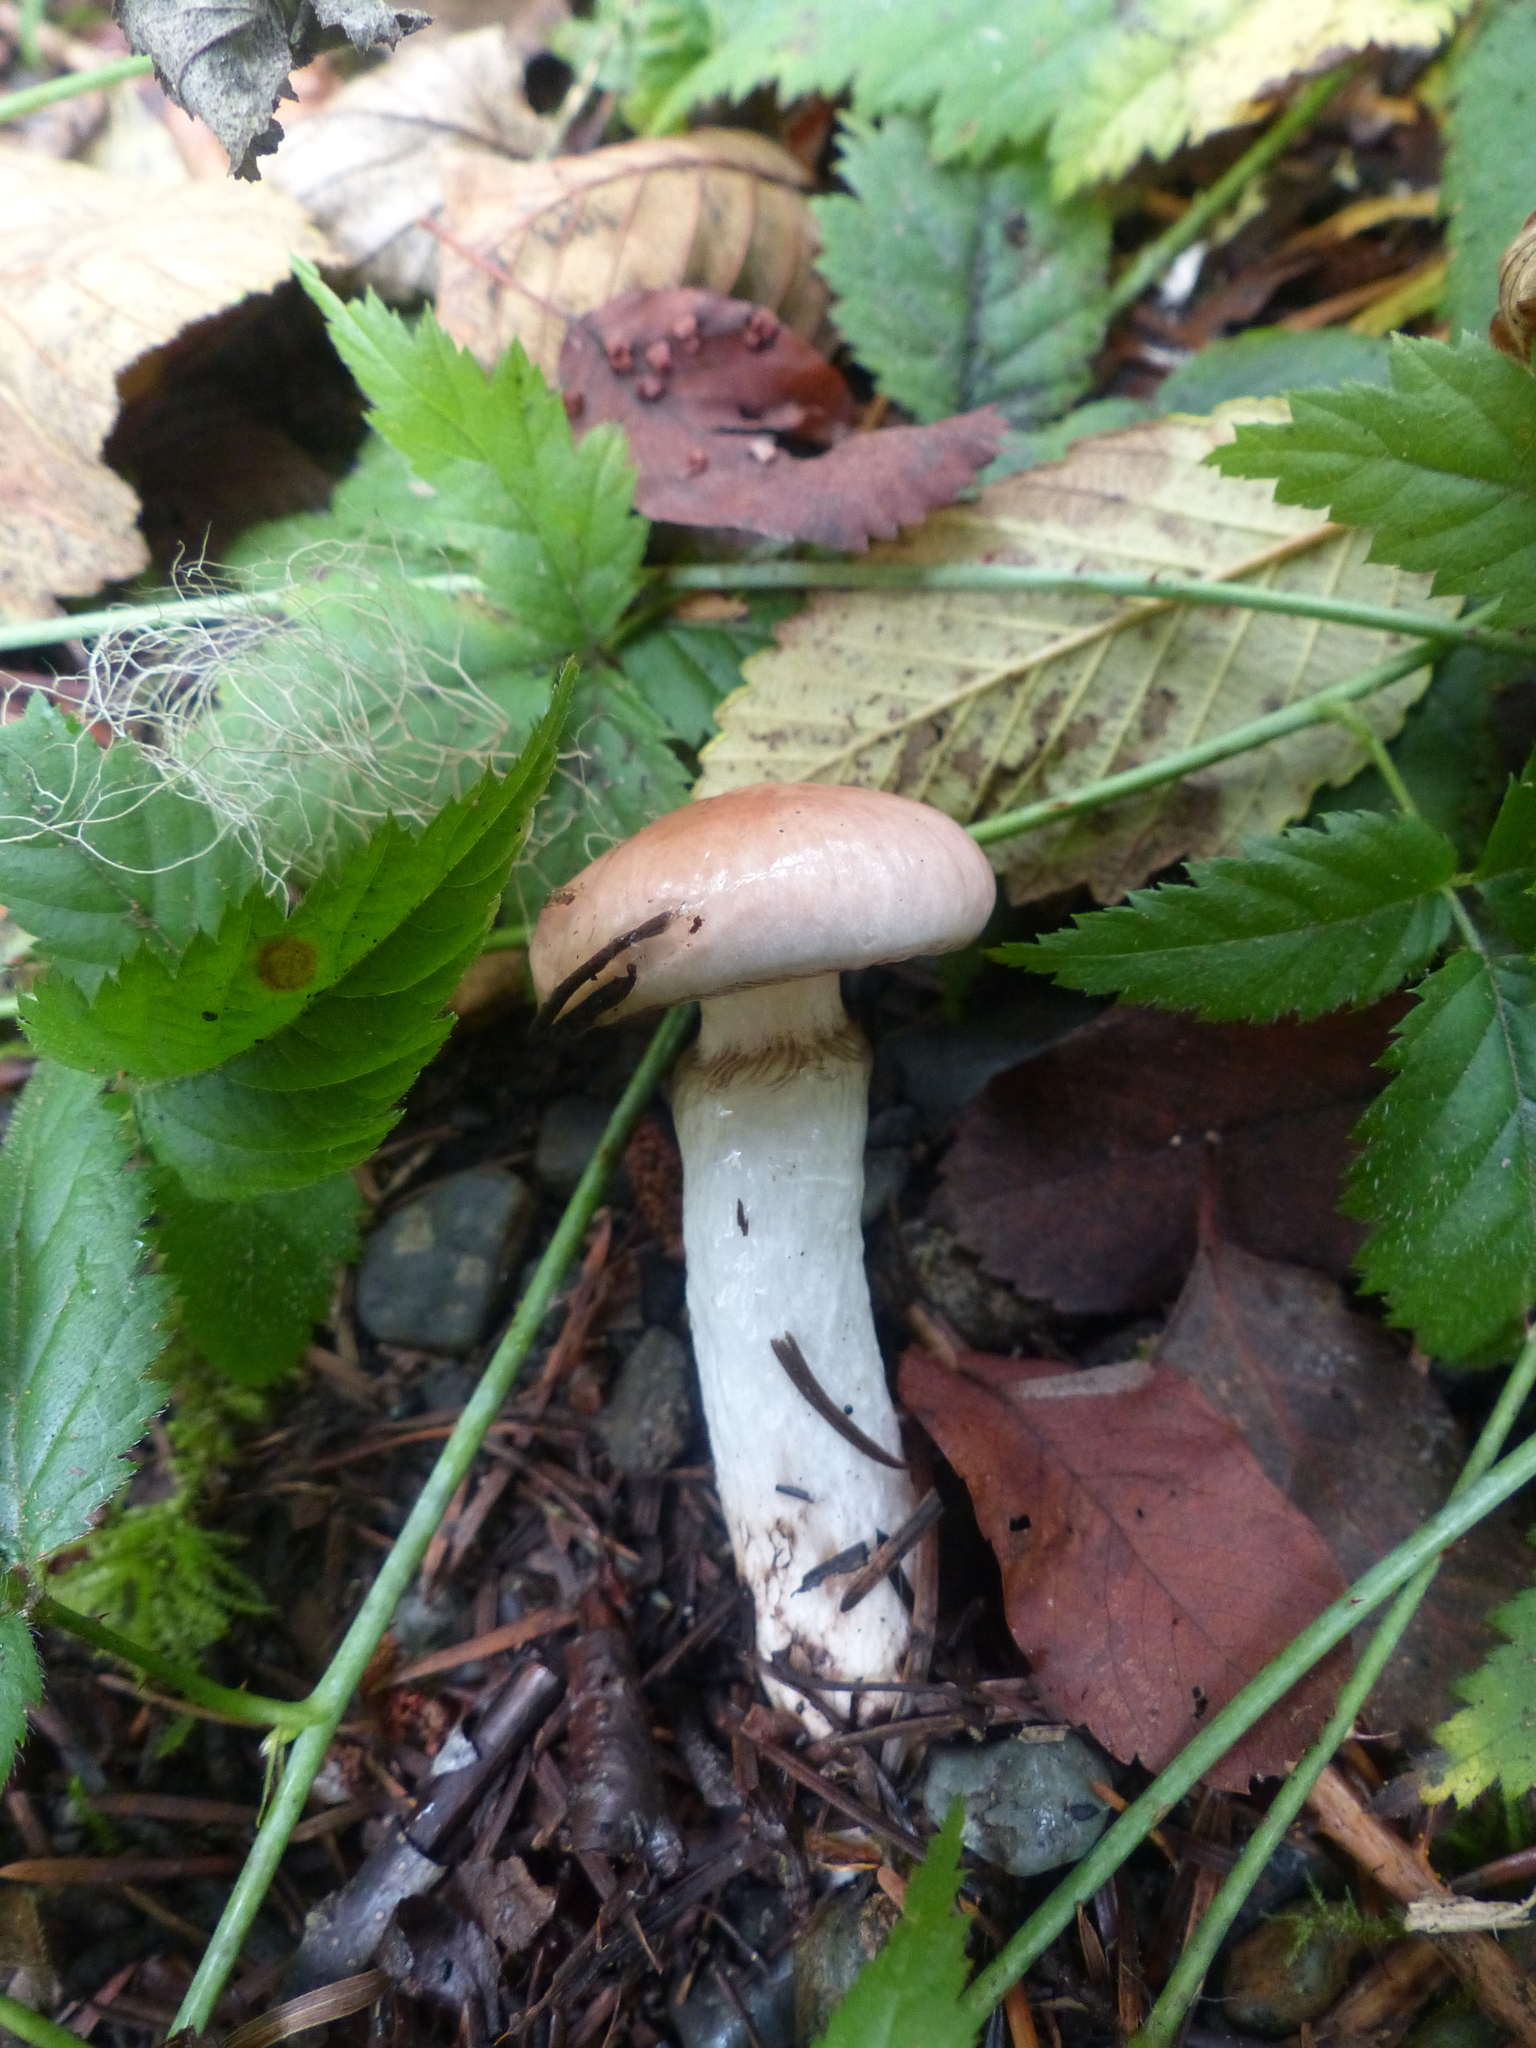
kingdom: Fungi
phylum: Basidiomycota
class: Agaricomycetes
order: Boletales
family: Gomphidiaceae
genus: Gomphidius
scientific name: Gomphidius subroseus
